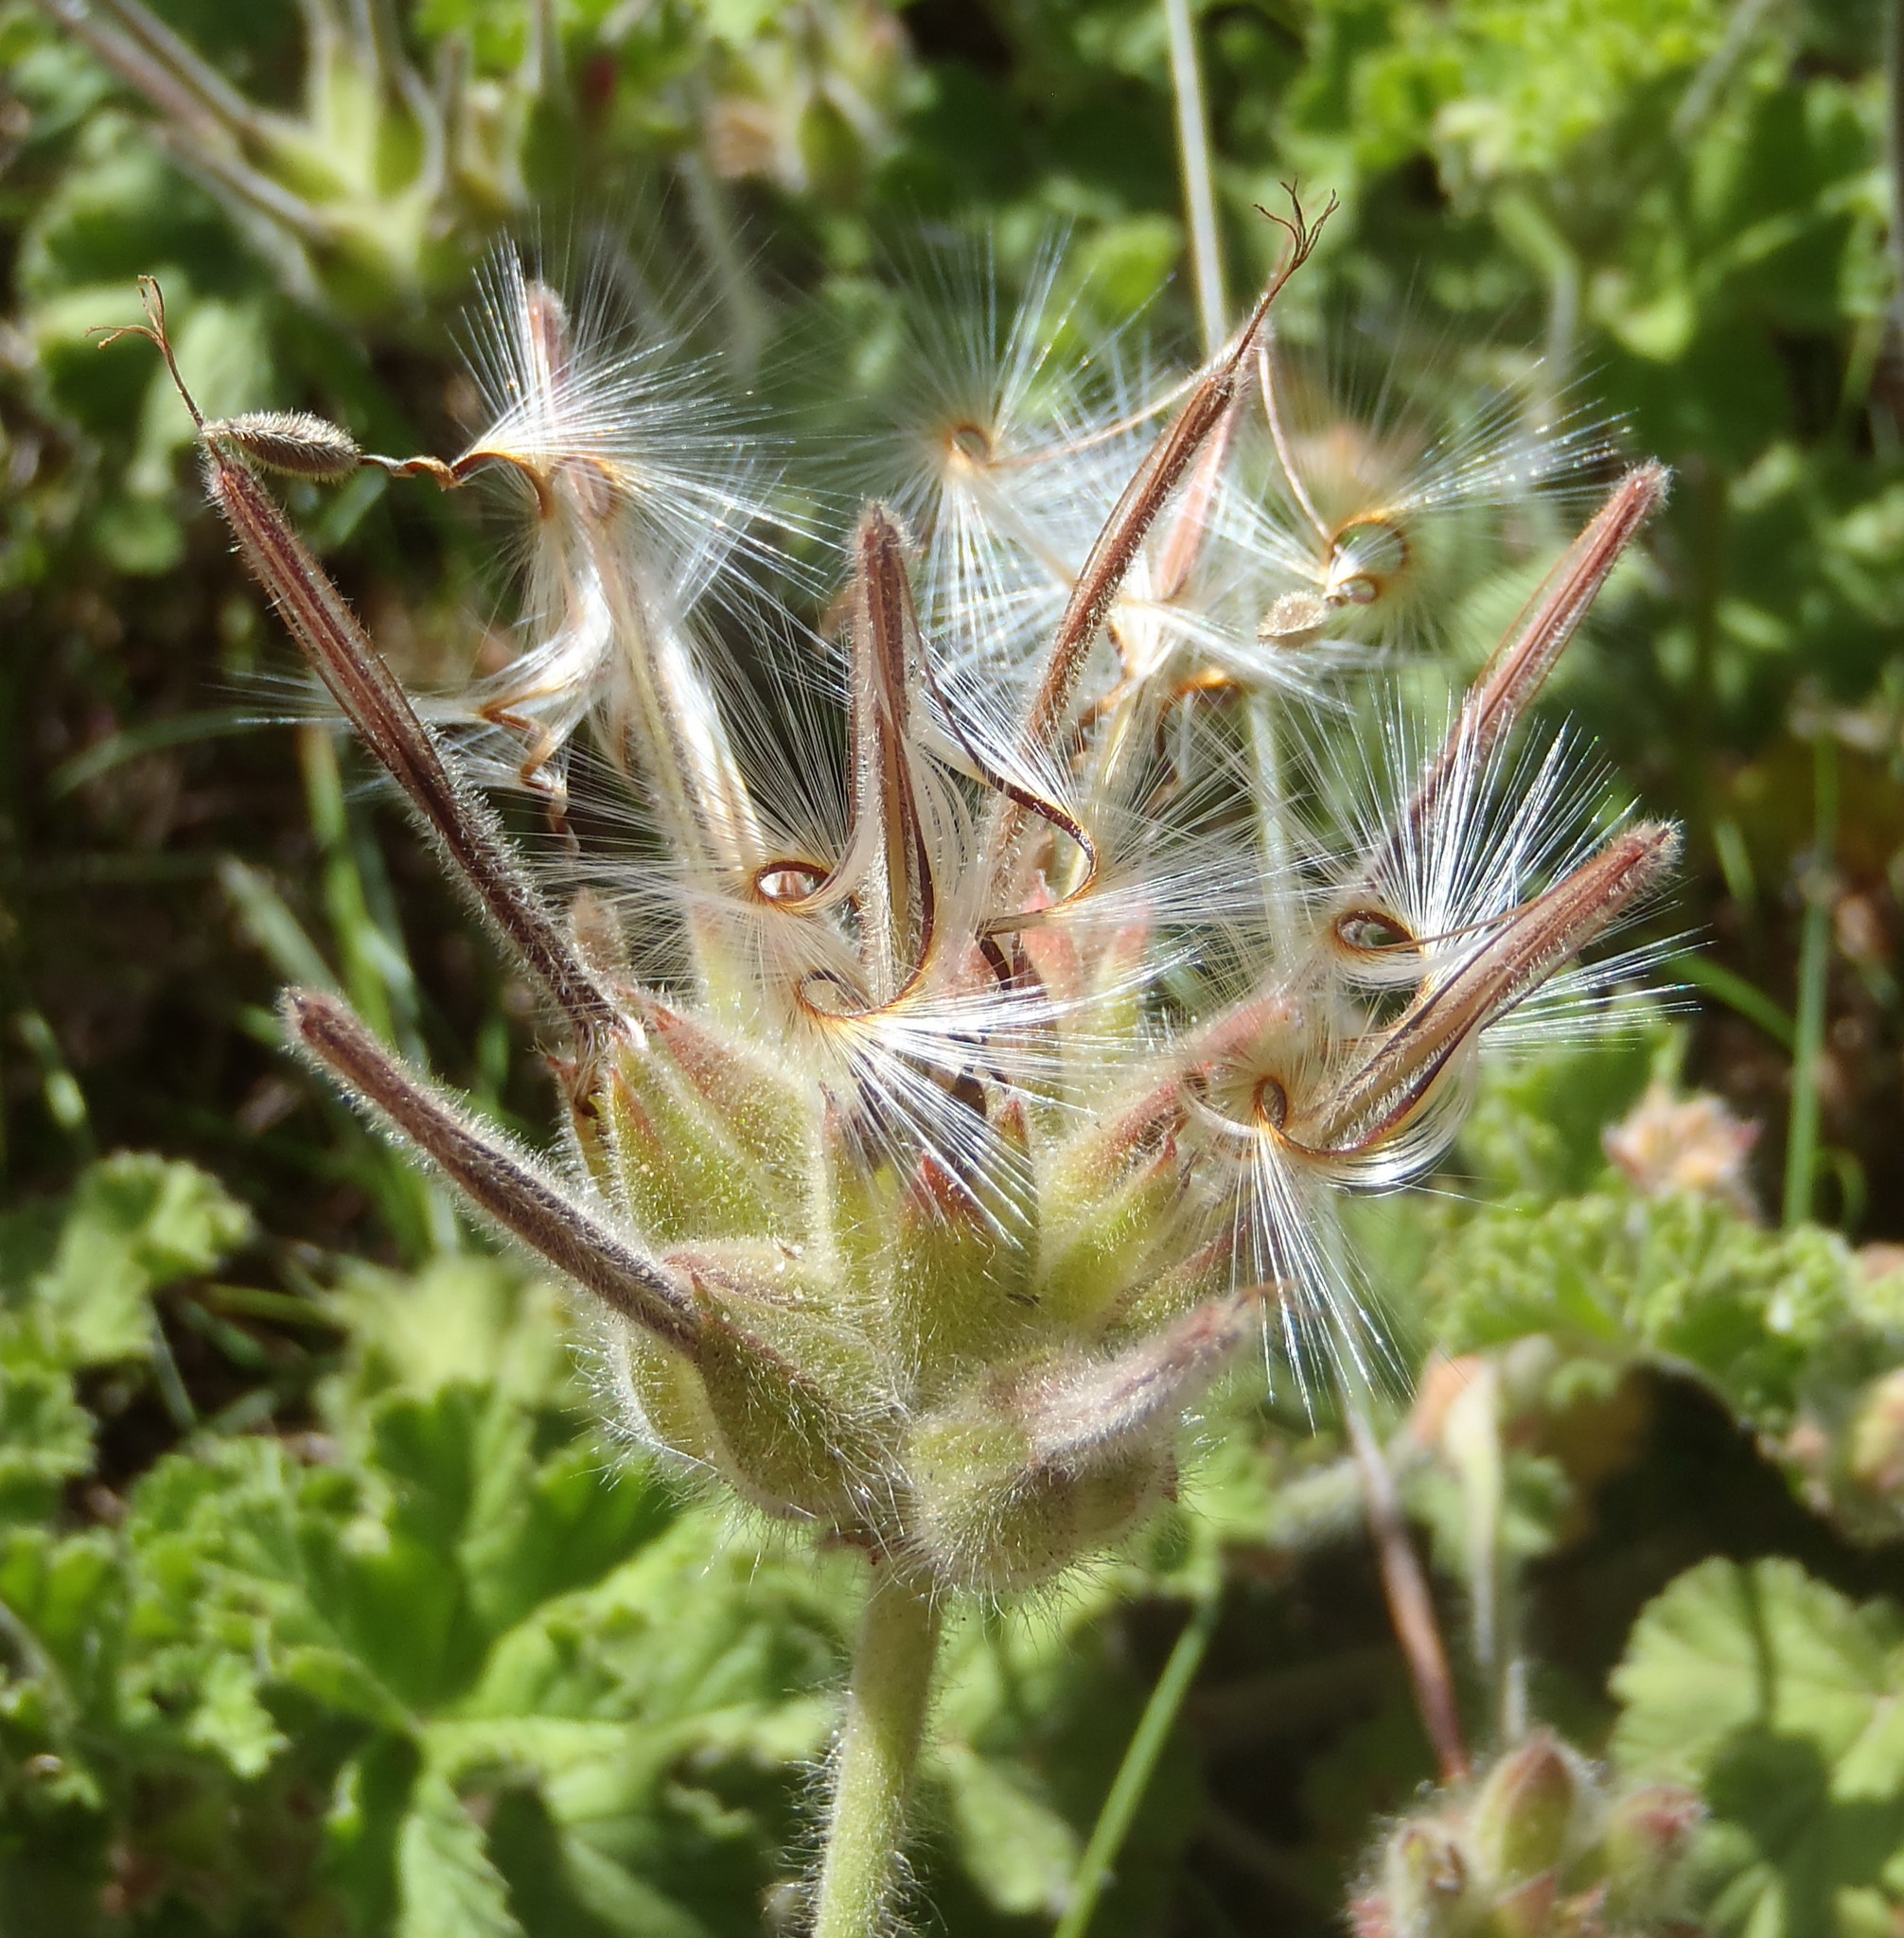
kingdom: Plantae
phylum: Tracheophyta
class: Magnoliopsida
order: Geraniales
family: Geraniaceae
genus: Pelargonium
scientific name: Pelargonium capitatum
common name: Rose scented geranium
